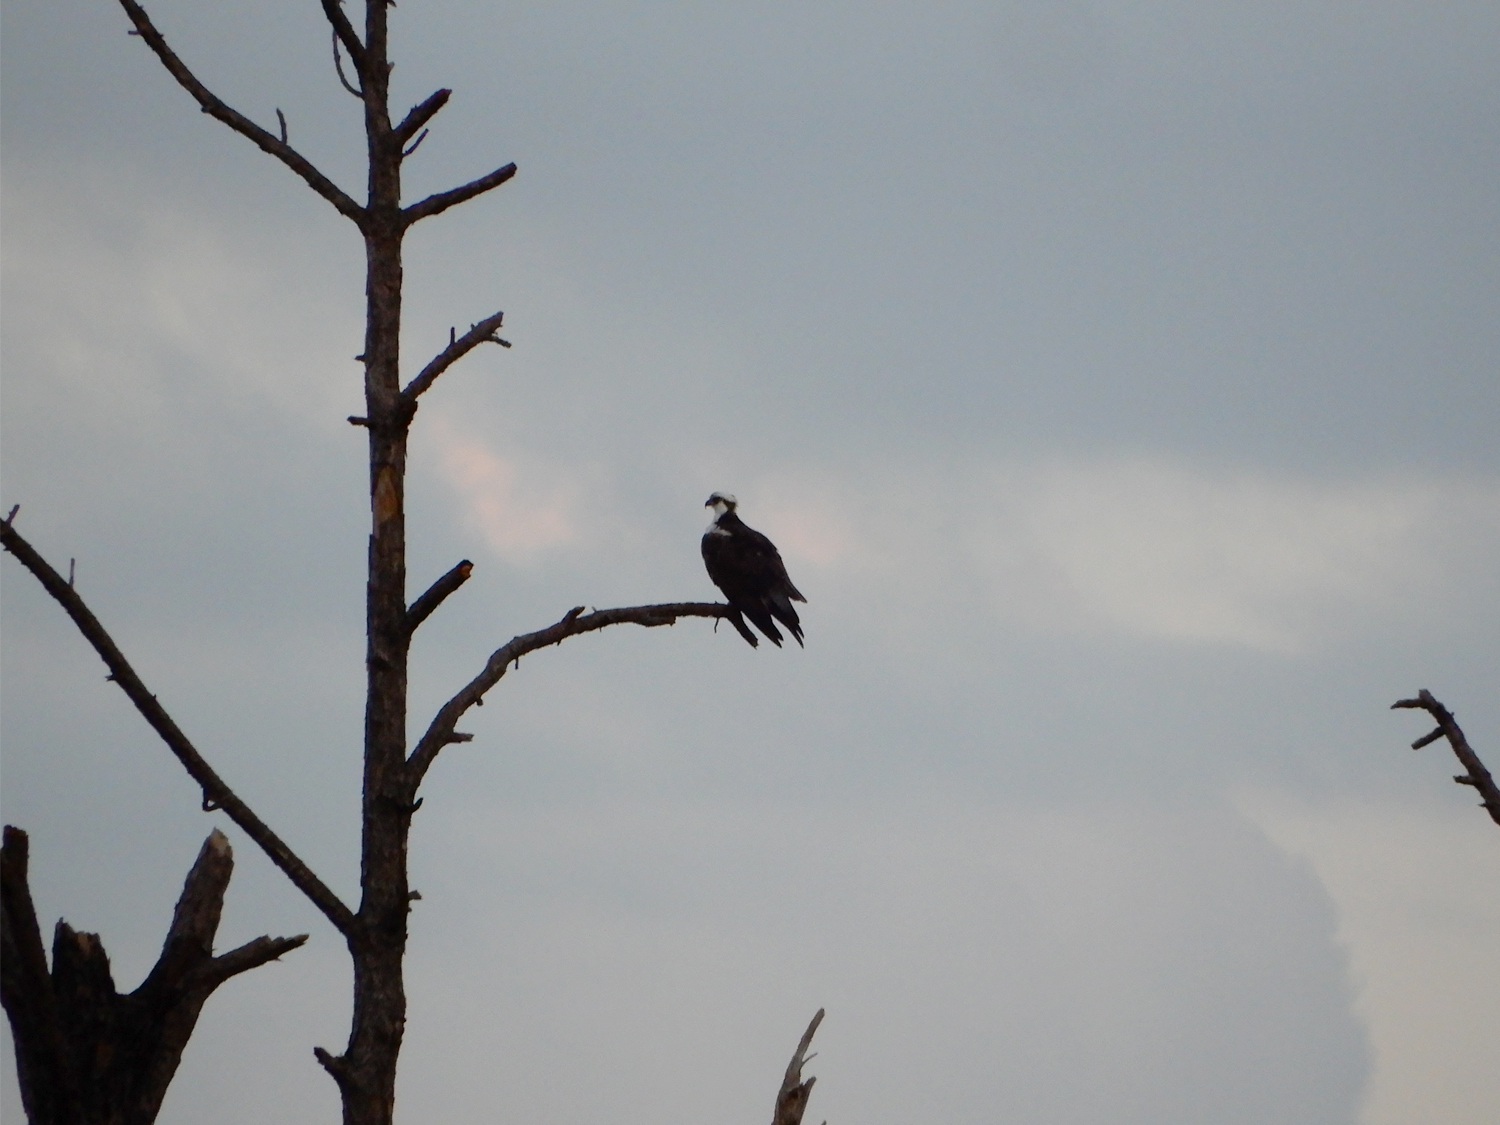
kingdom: Animalia
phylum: Chordata
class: Aves
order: Accipitriformes
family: Pandionidae
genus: Pandion
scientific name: Pandion haliaetus
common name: Osprey
